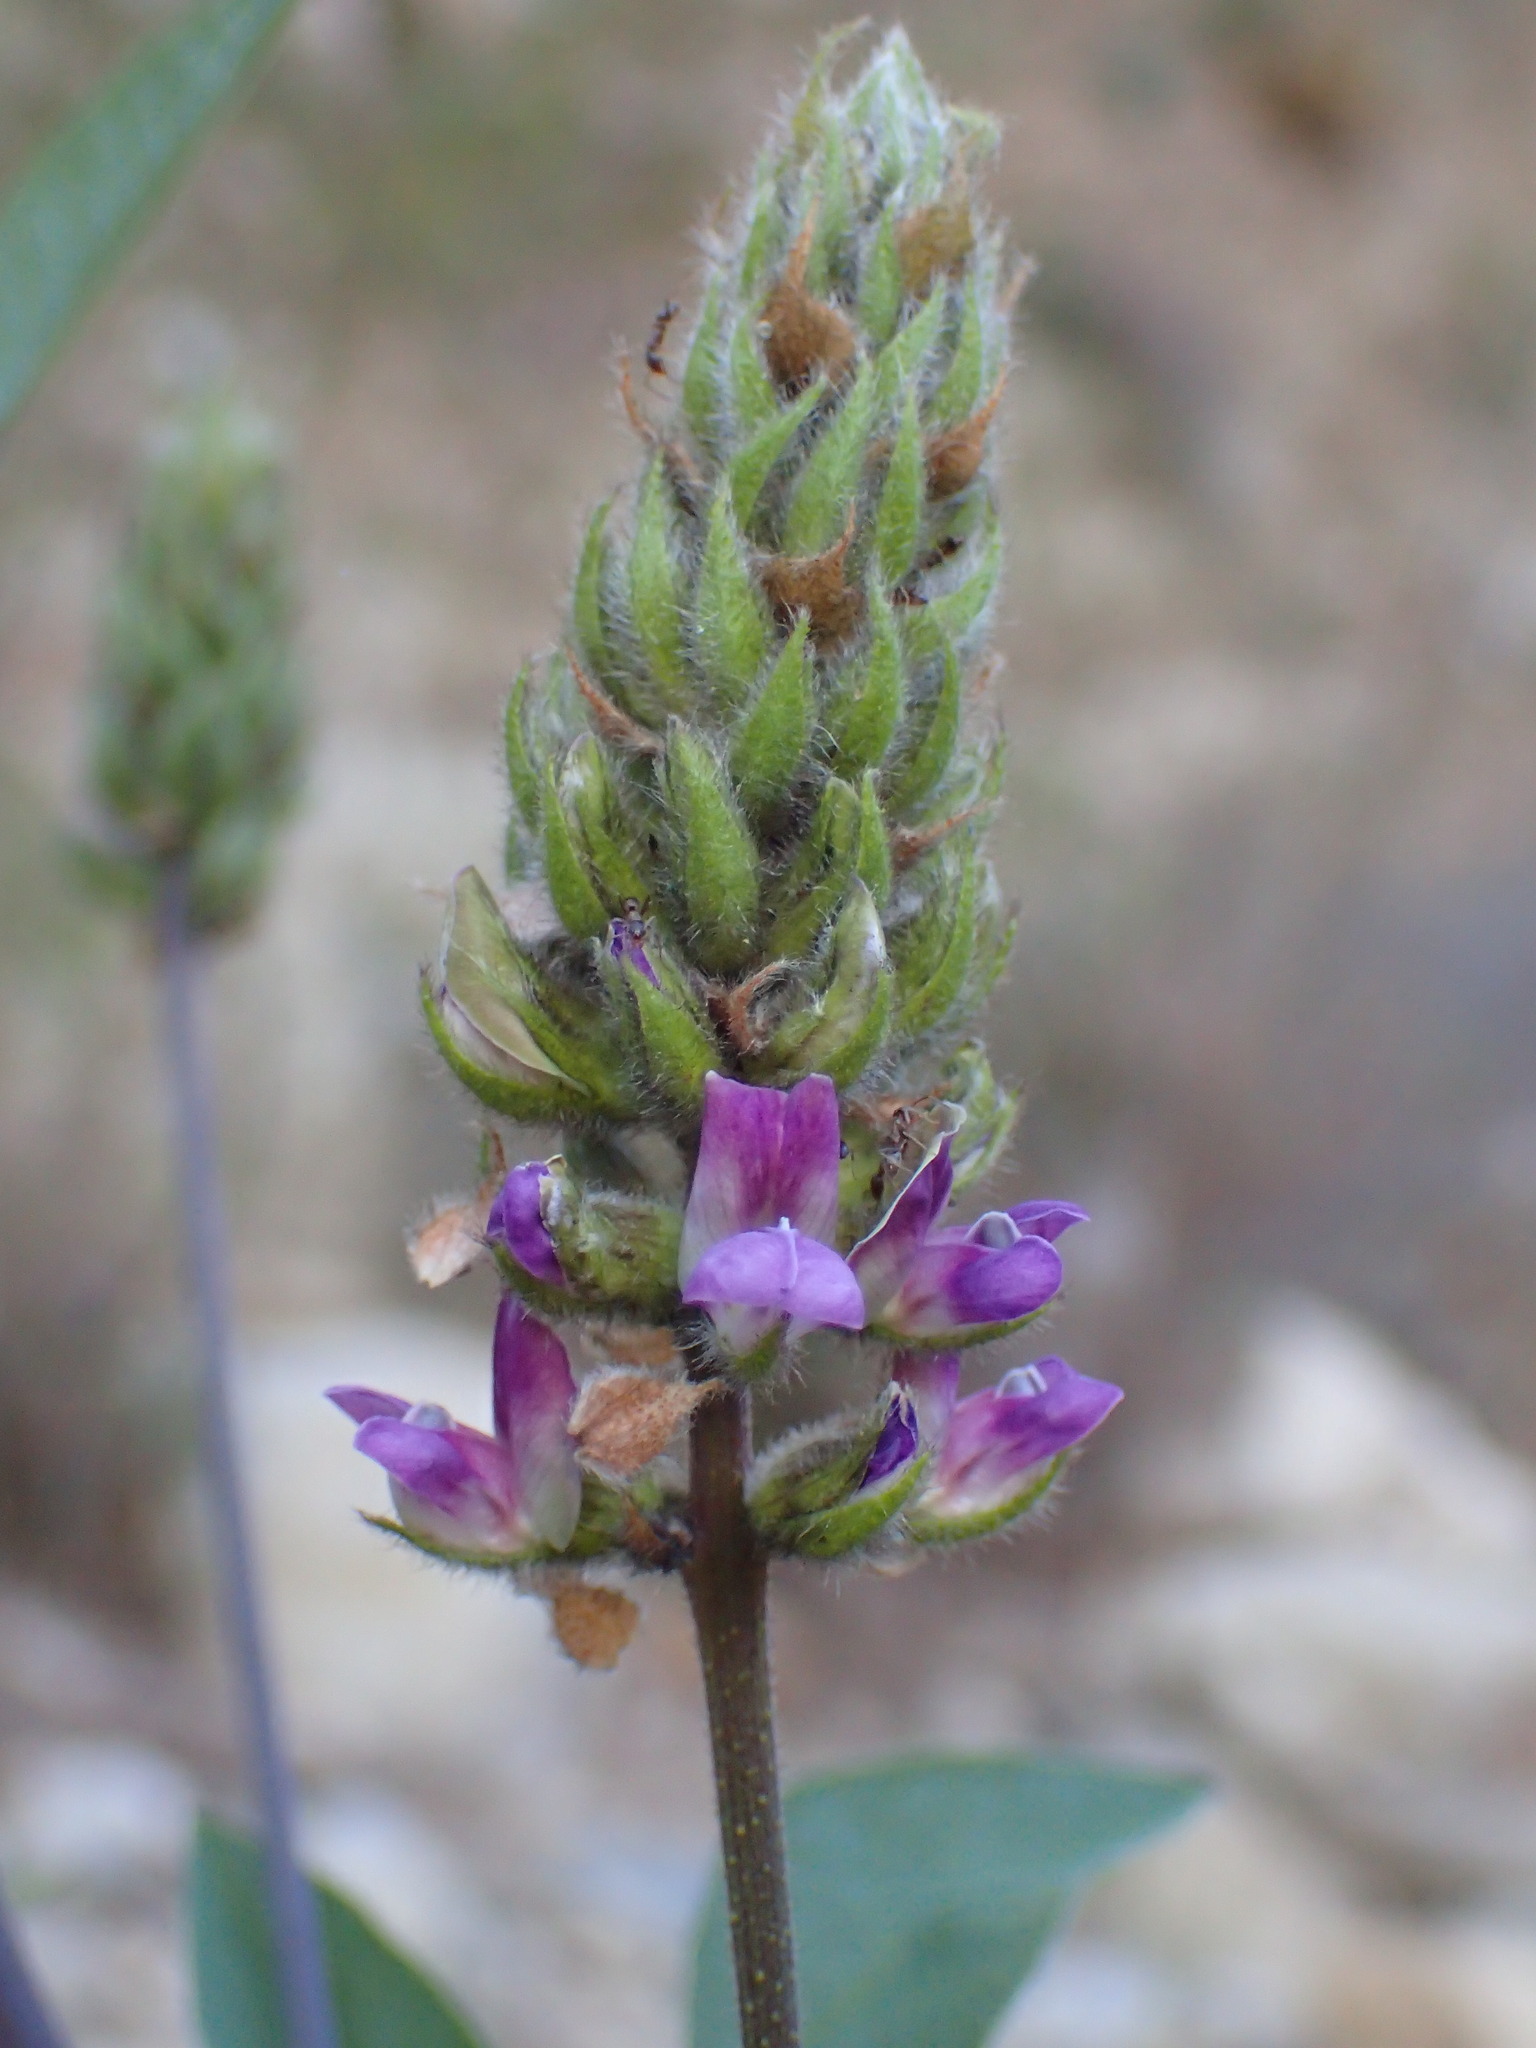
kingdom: Plantae
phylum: Tracheophyta
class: Magnoliopsida
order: Fabales
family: Fabaceae
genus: Hoita
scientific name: Hoita macrostachya
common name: Leatherroot
